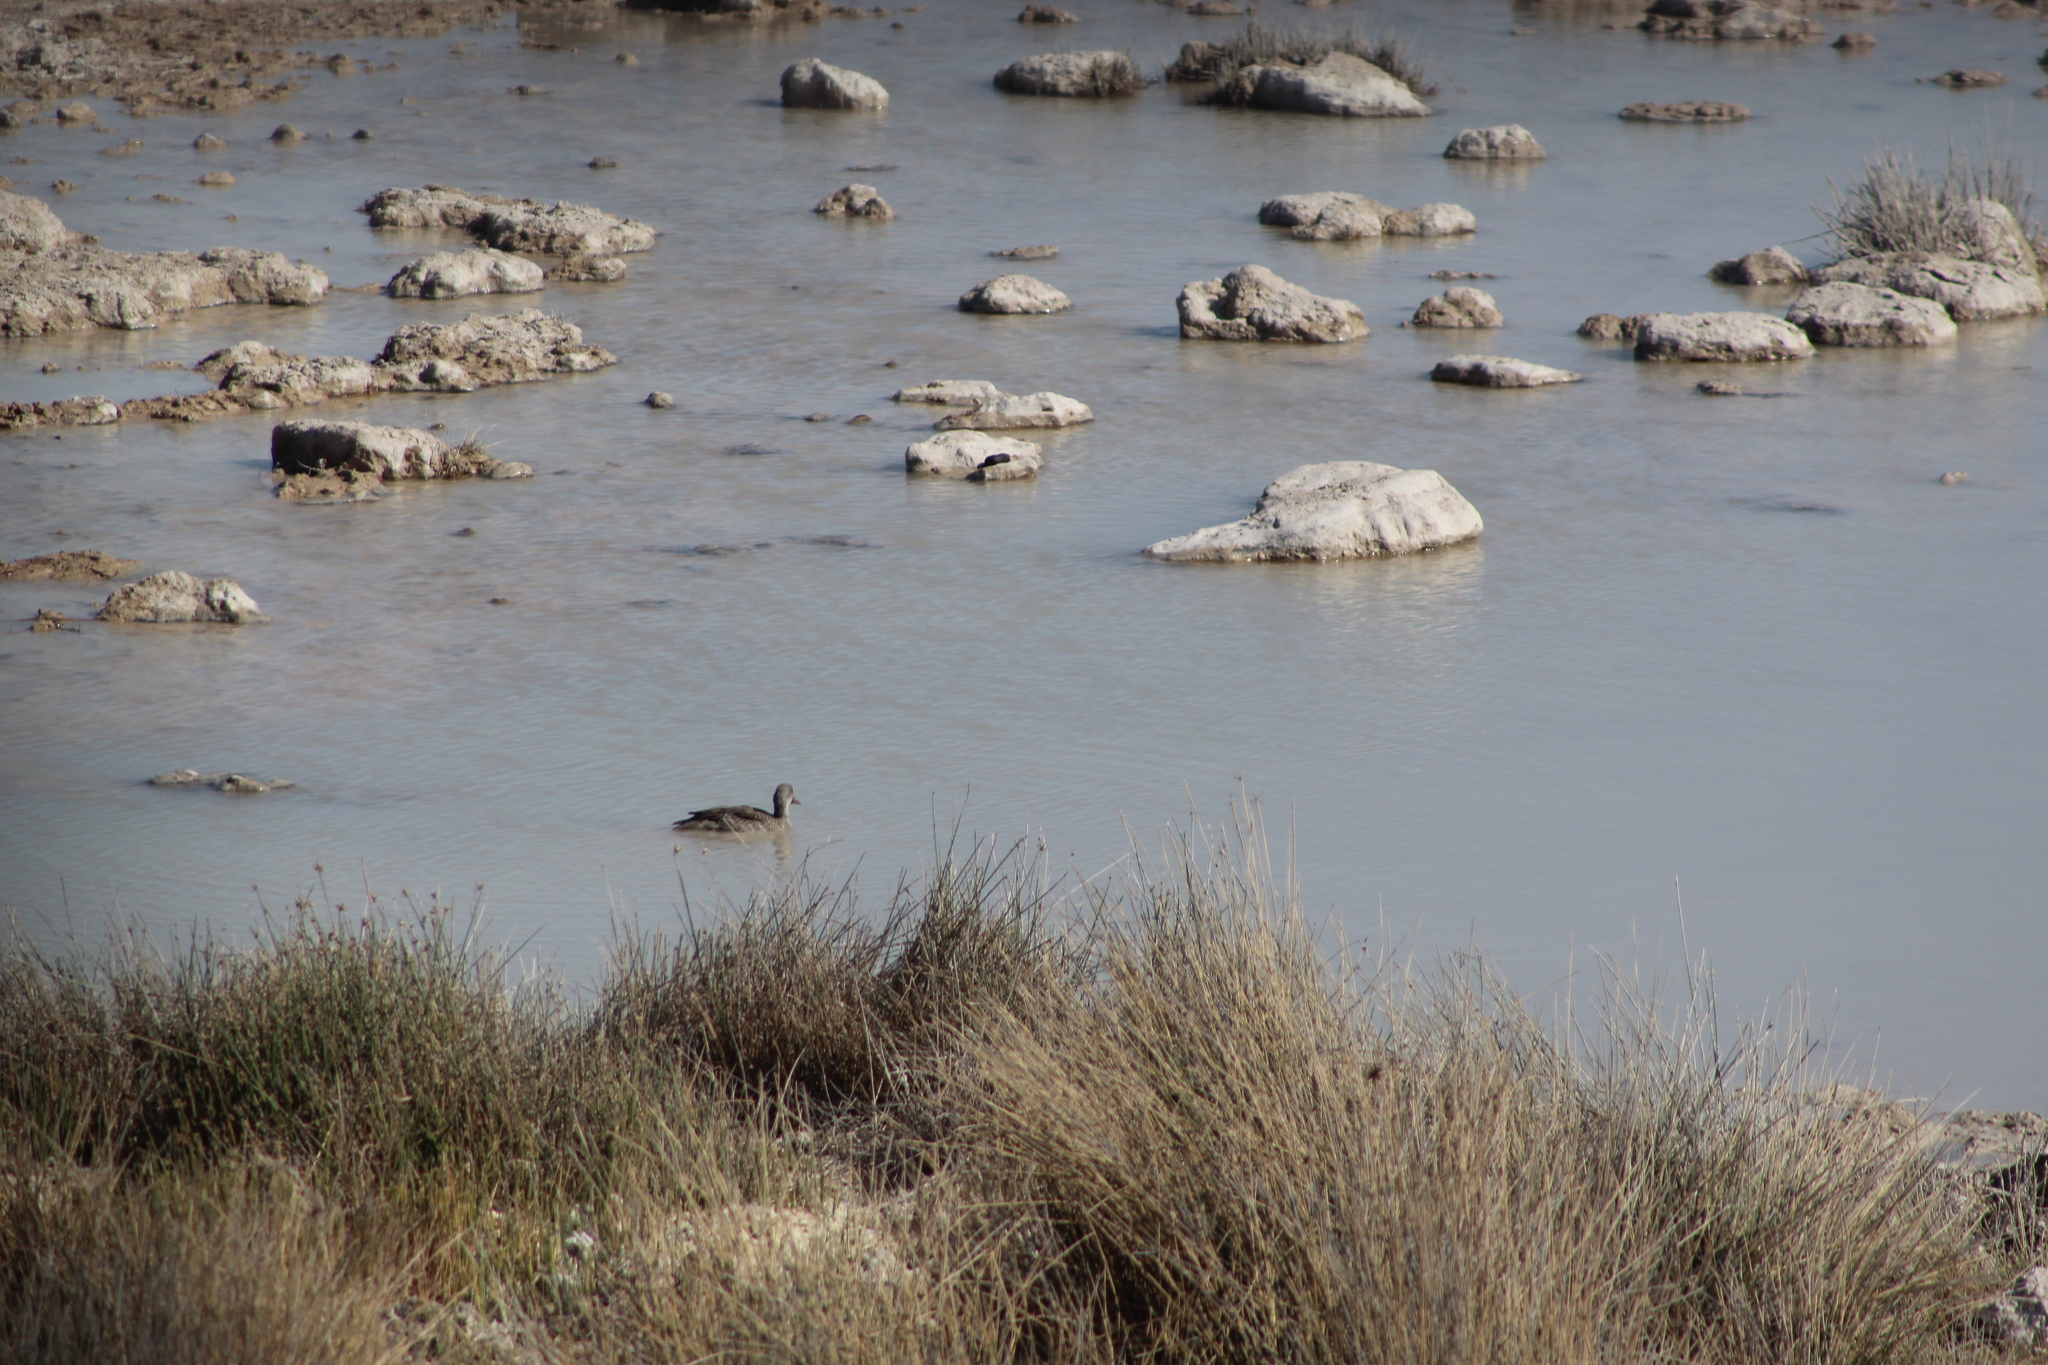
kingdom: Animalia
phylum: Chordata
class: Aves
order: Anseriformes
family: Anatidae
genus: Anas
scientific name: Anas capensis
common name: Cape teal
